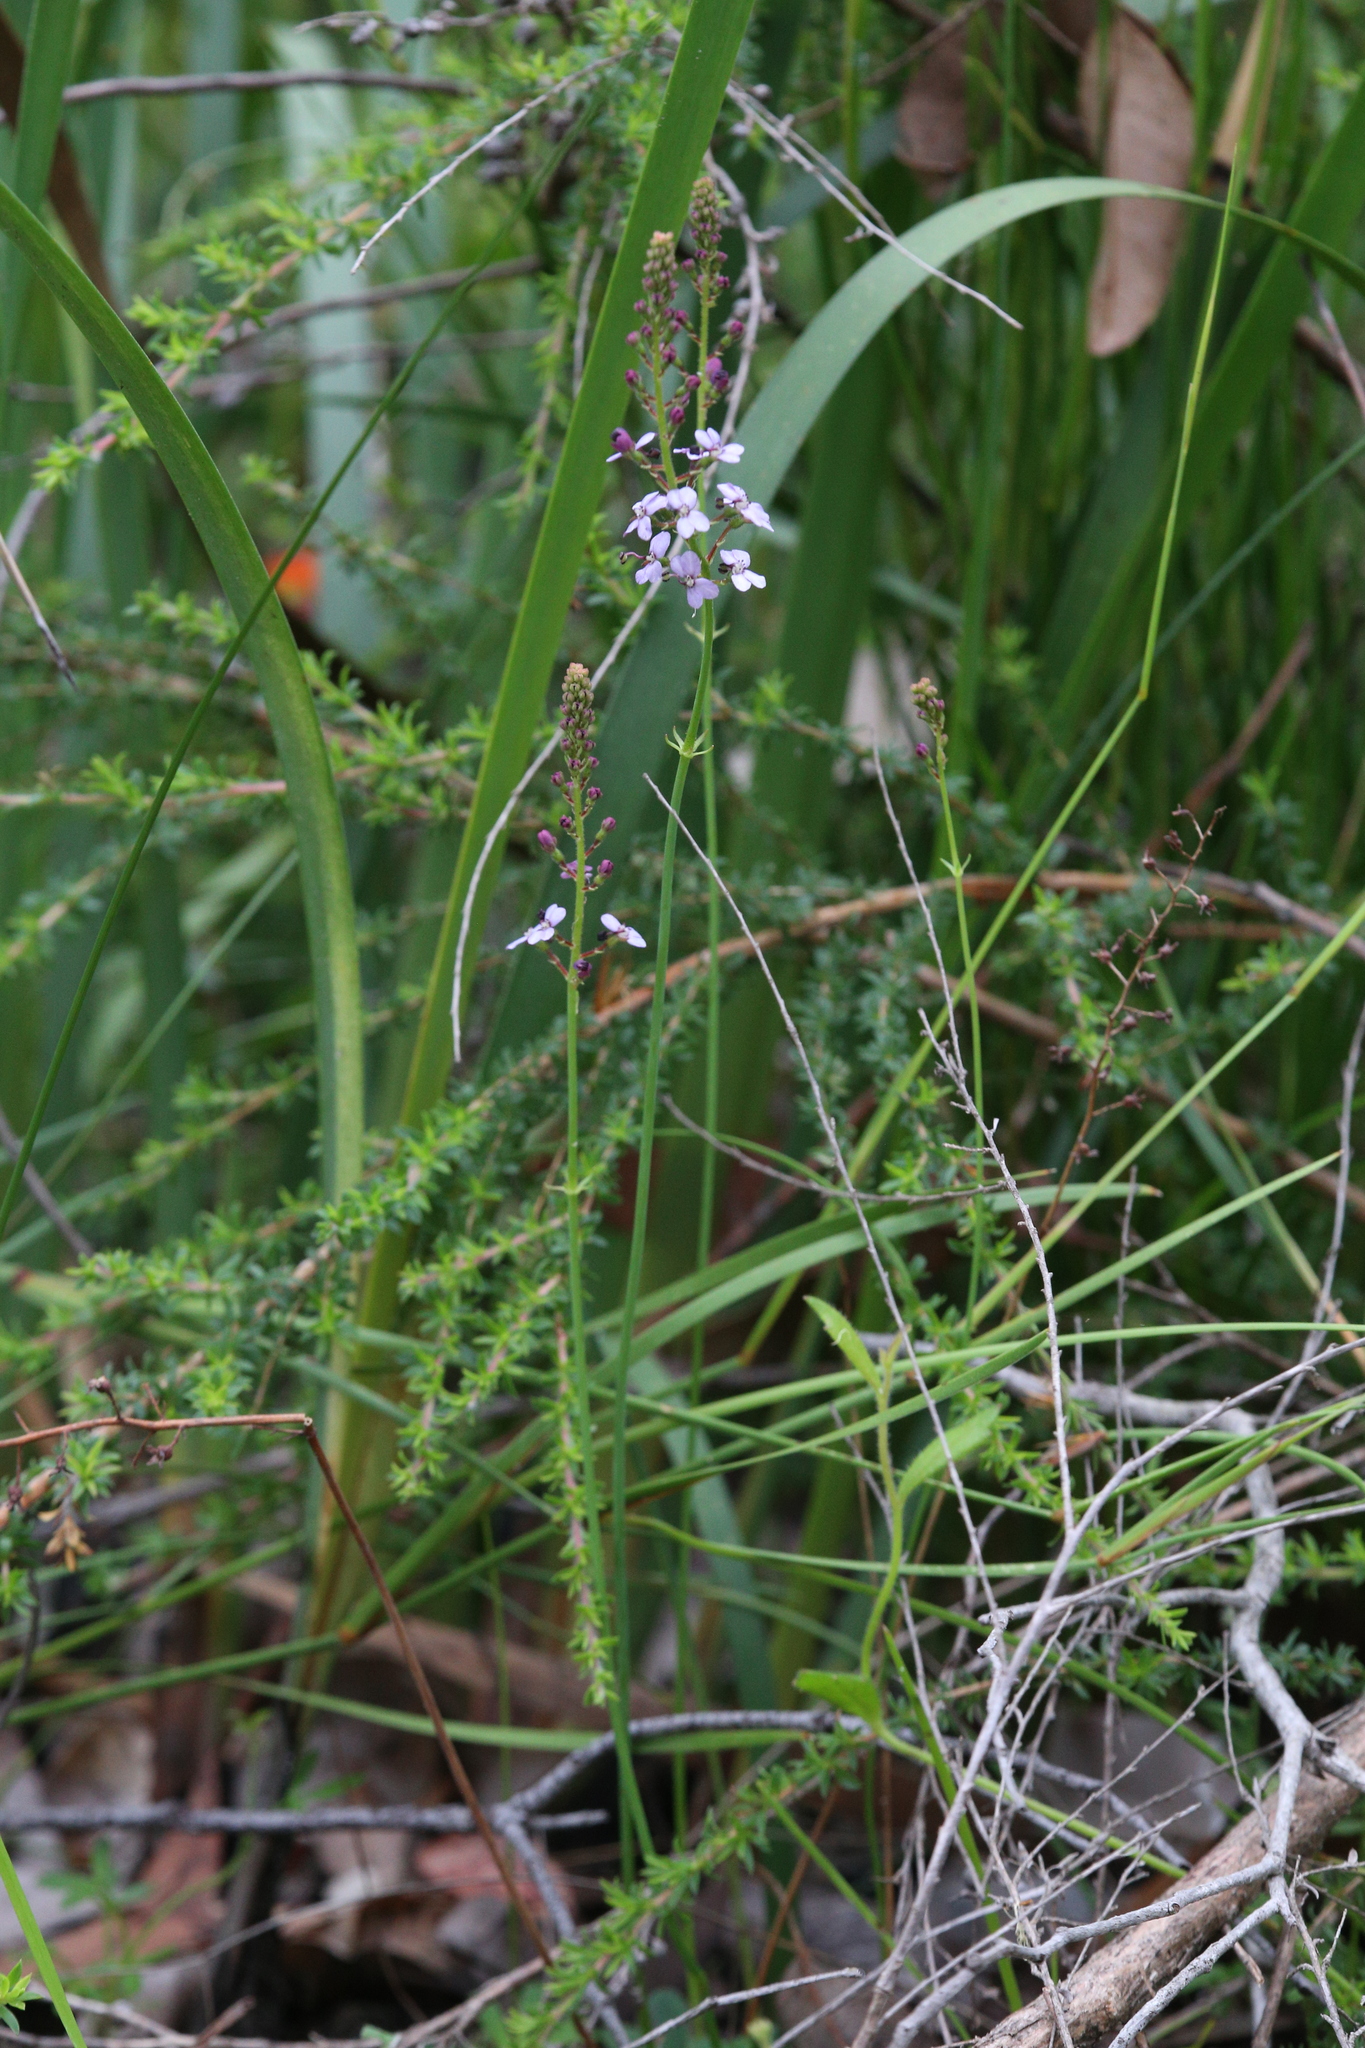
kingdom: Plantae
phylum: Tracheophyta
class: Magnoliopsida
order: Asterales
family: Stylidiaceae
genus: Stylidium
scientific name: Stylidium amoenum
